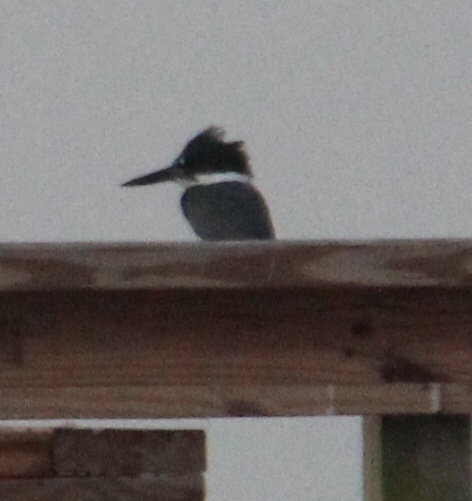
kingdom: Animalia
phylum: Chordata
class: Aves
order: Coraciiformes
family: Alcedinidae
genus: Megaceryle
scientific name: Megaceryle alcyon
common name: Belted kingfisher
